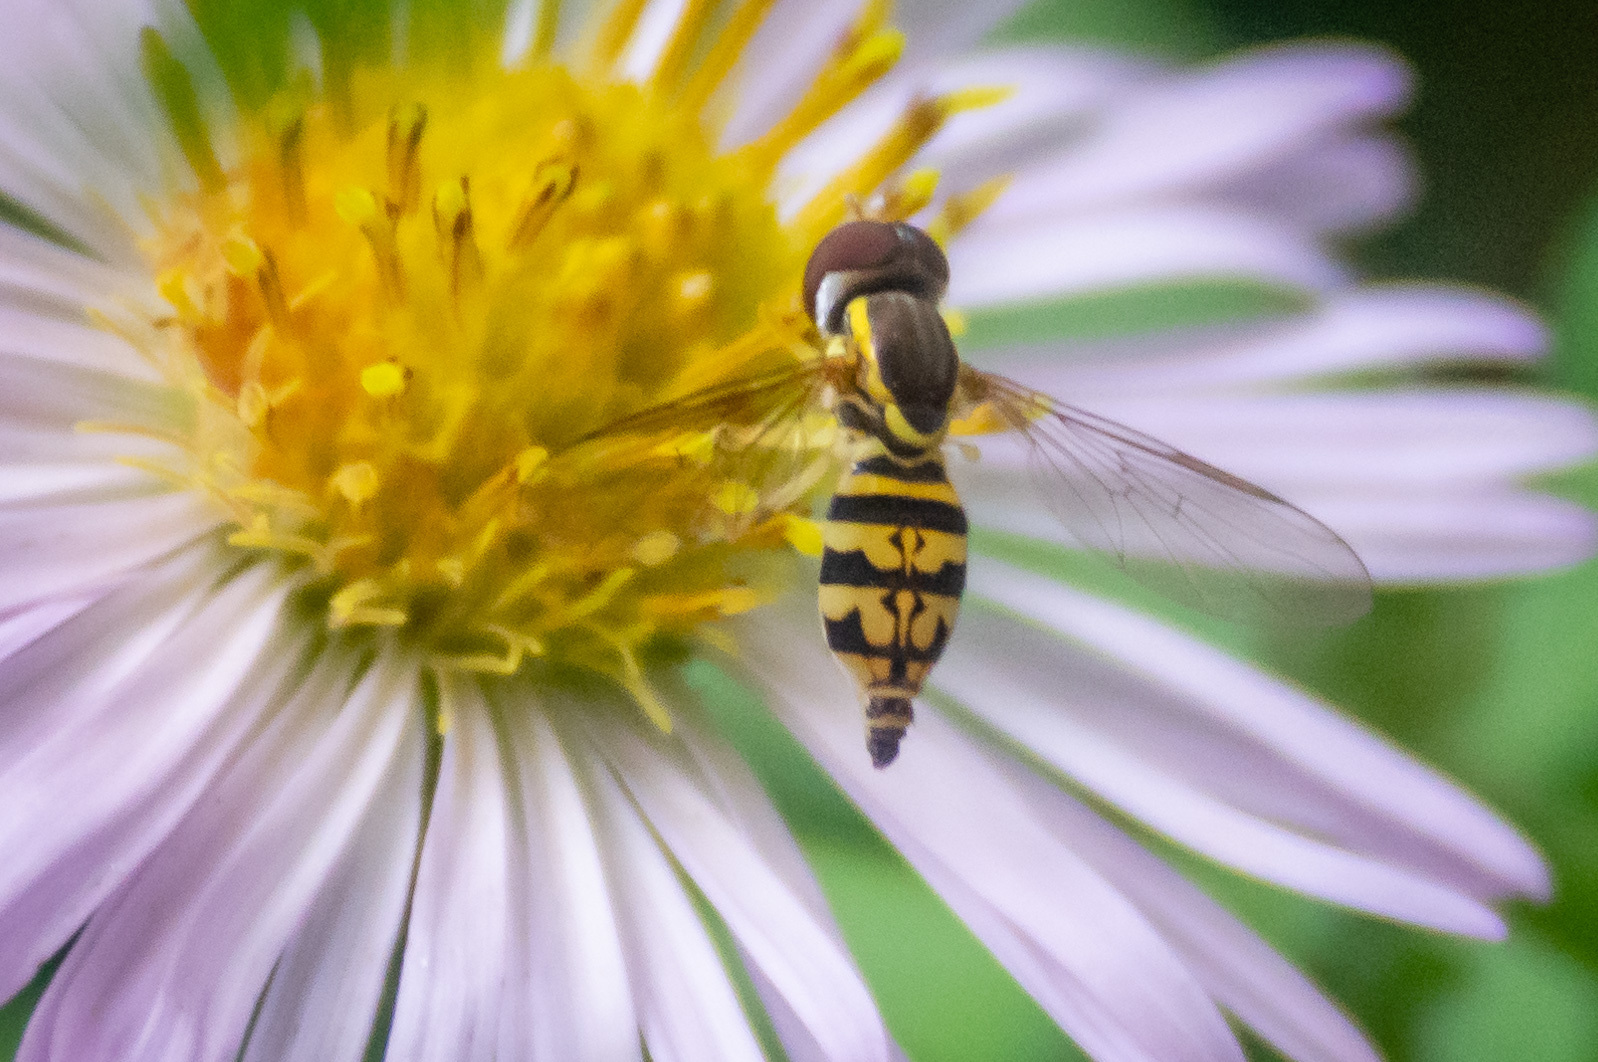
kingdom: Animalia
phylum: Arthropoda
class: Insecta
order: Diptera
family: Syrphidae
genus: Toxomerus
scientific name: Toxomerus geminatus
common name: Eastern calligrapher
